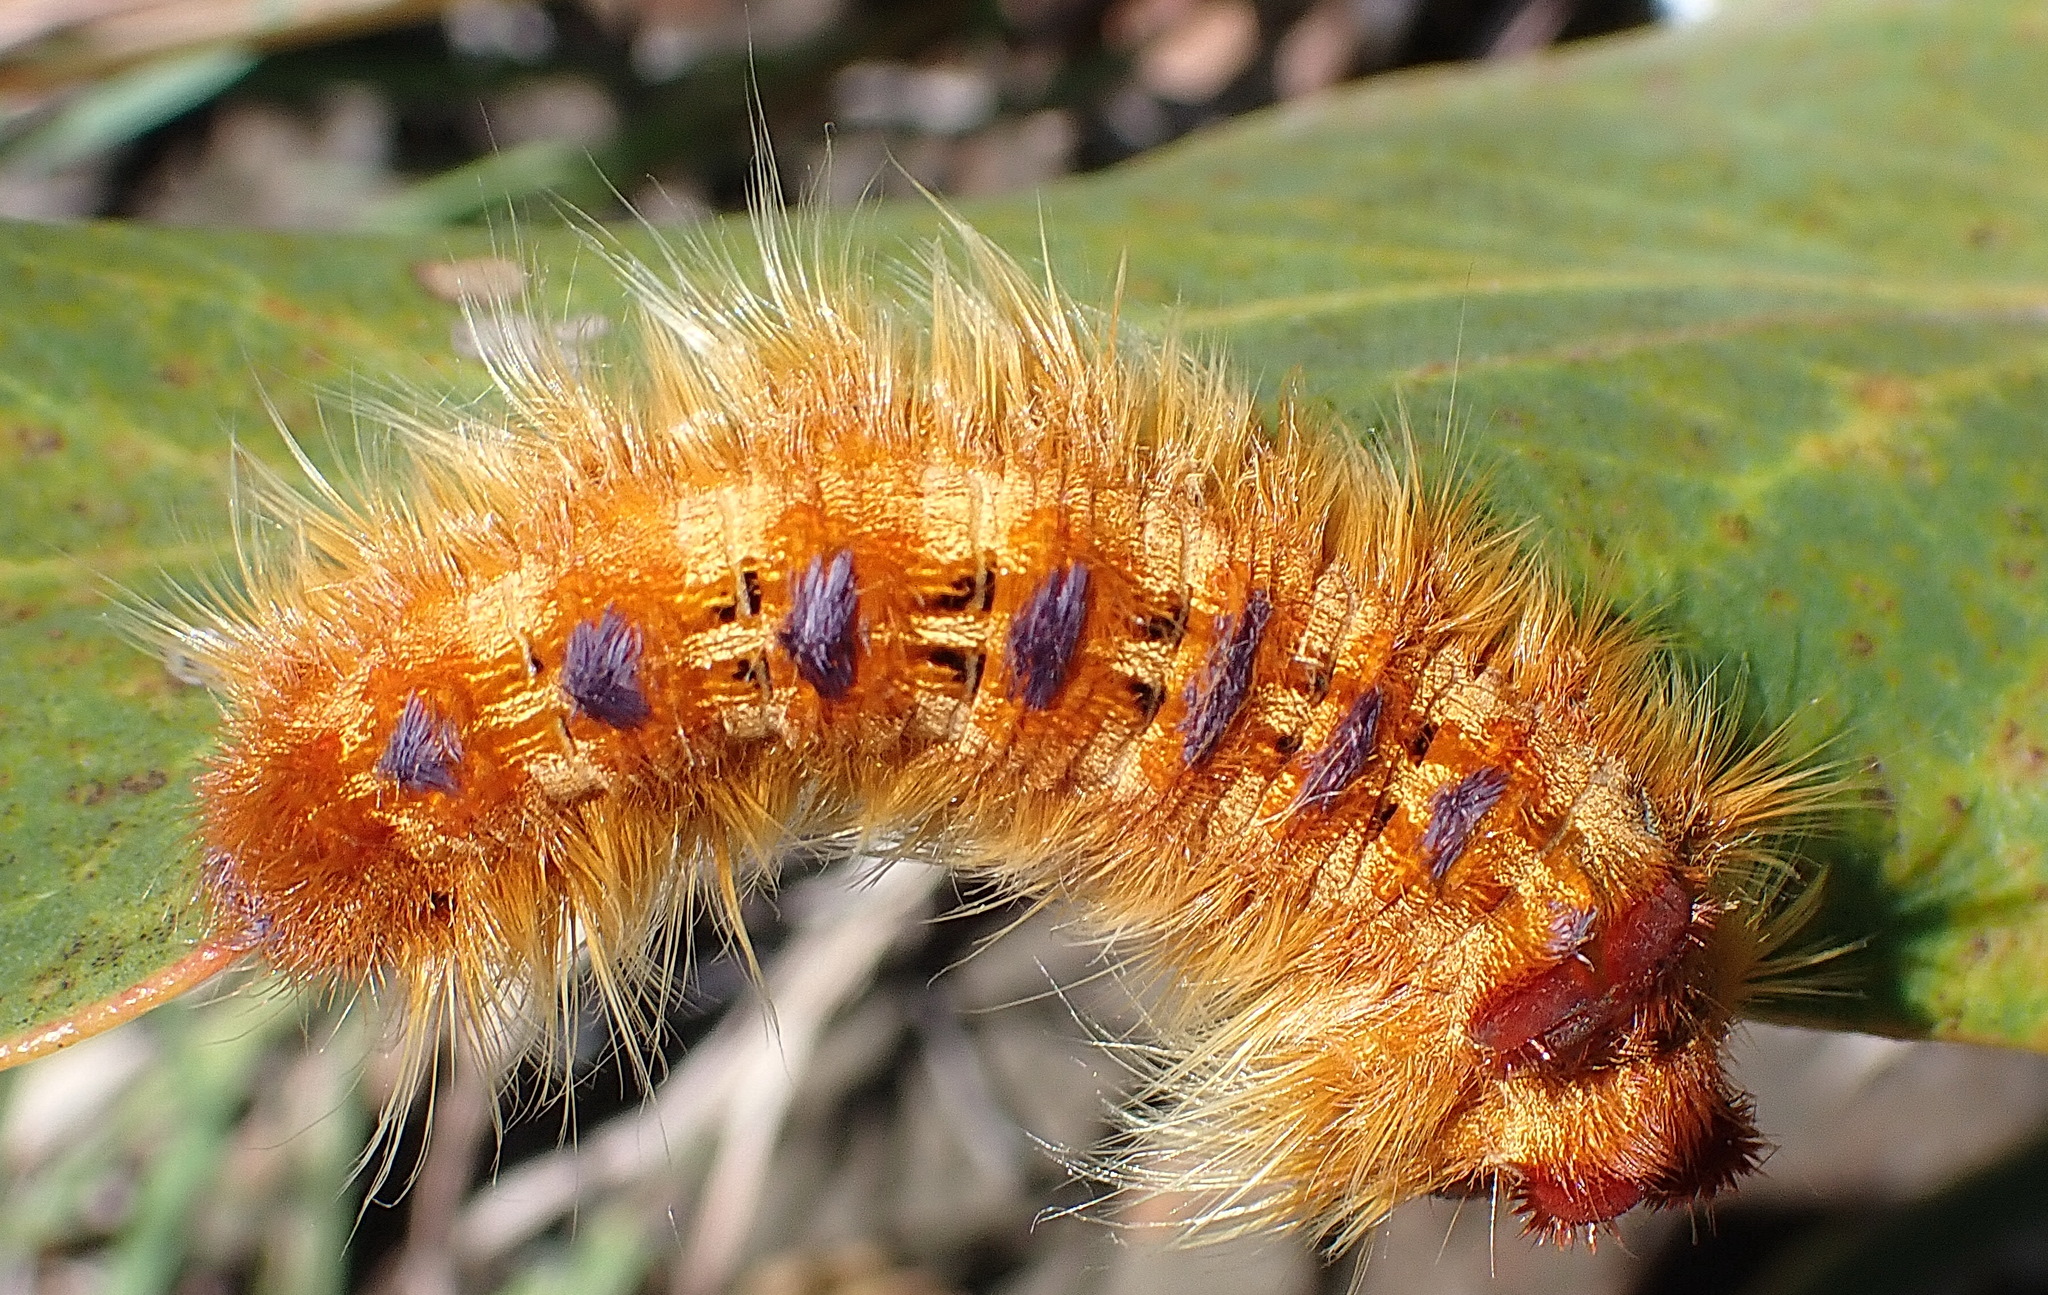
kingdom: Animalia
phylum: Arthropoda
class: Insecta
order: Lepidoptera
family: Lasiocampidae
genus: Eutricha
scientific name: Eutricha bifascia
